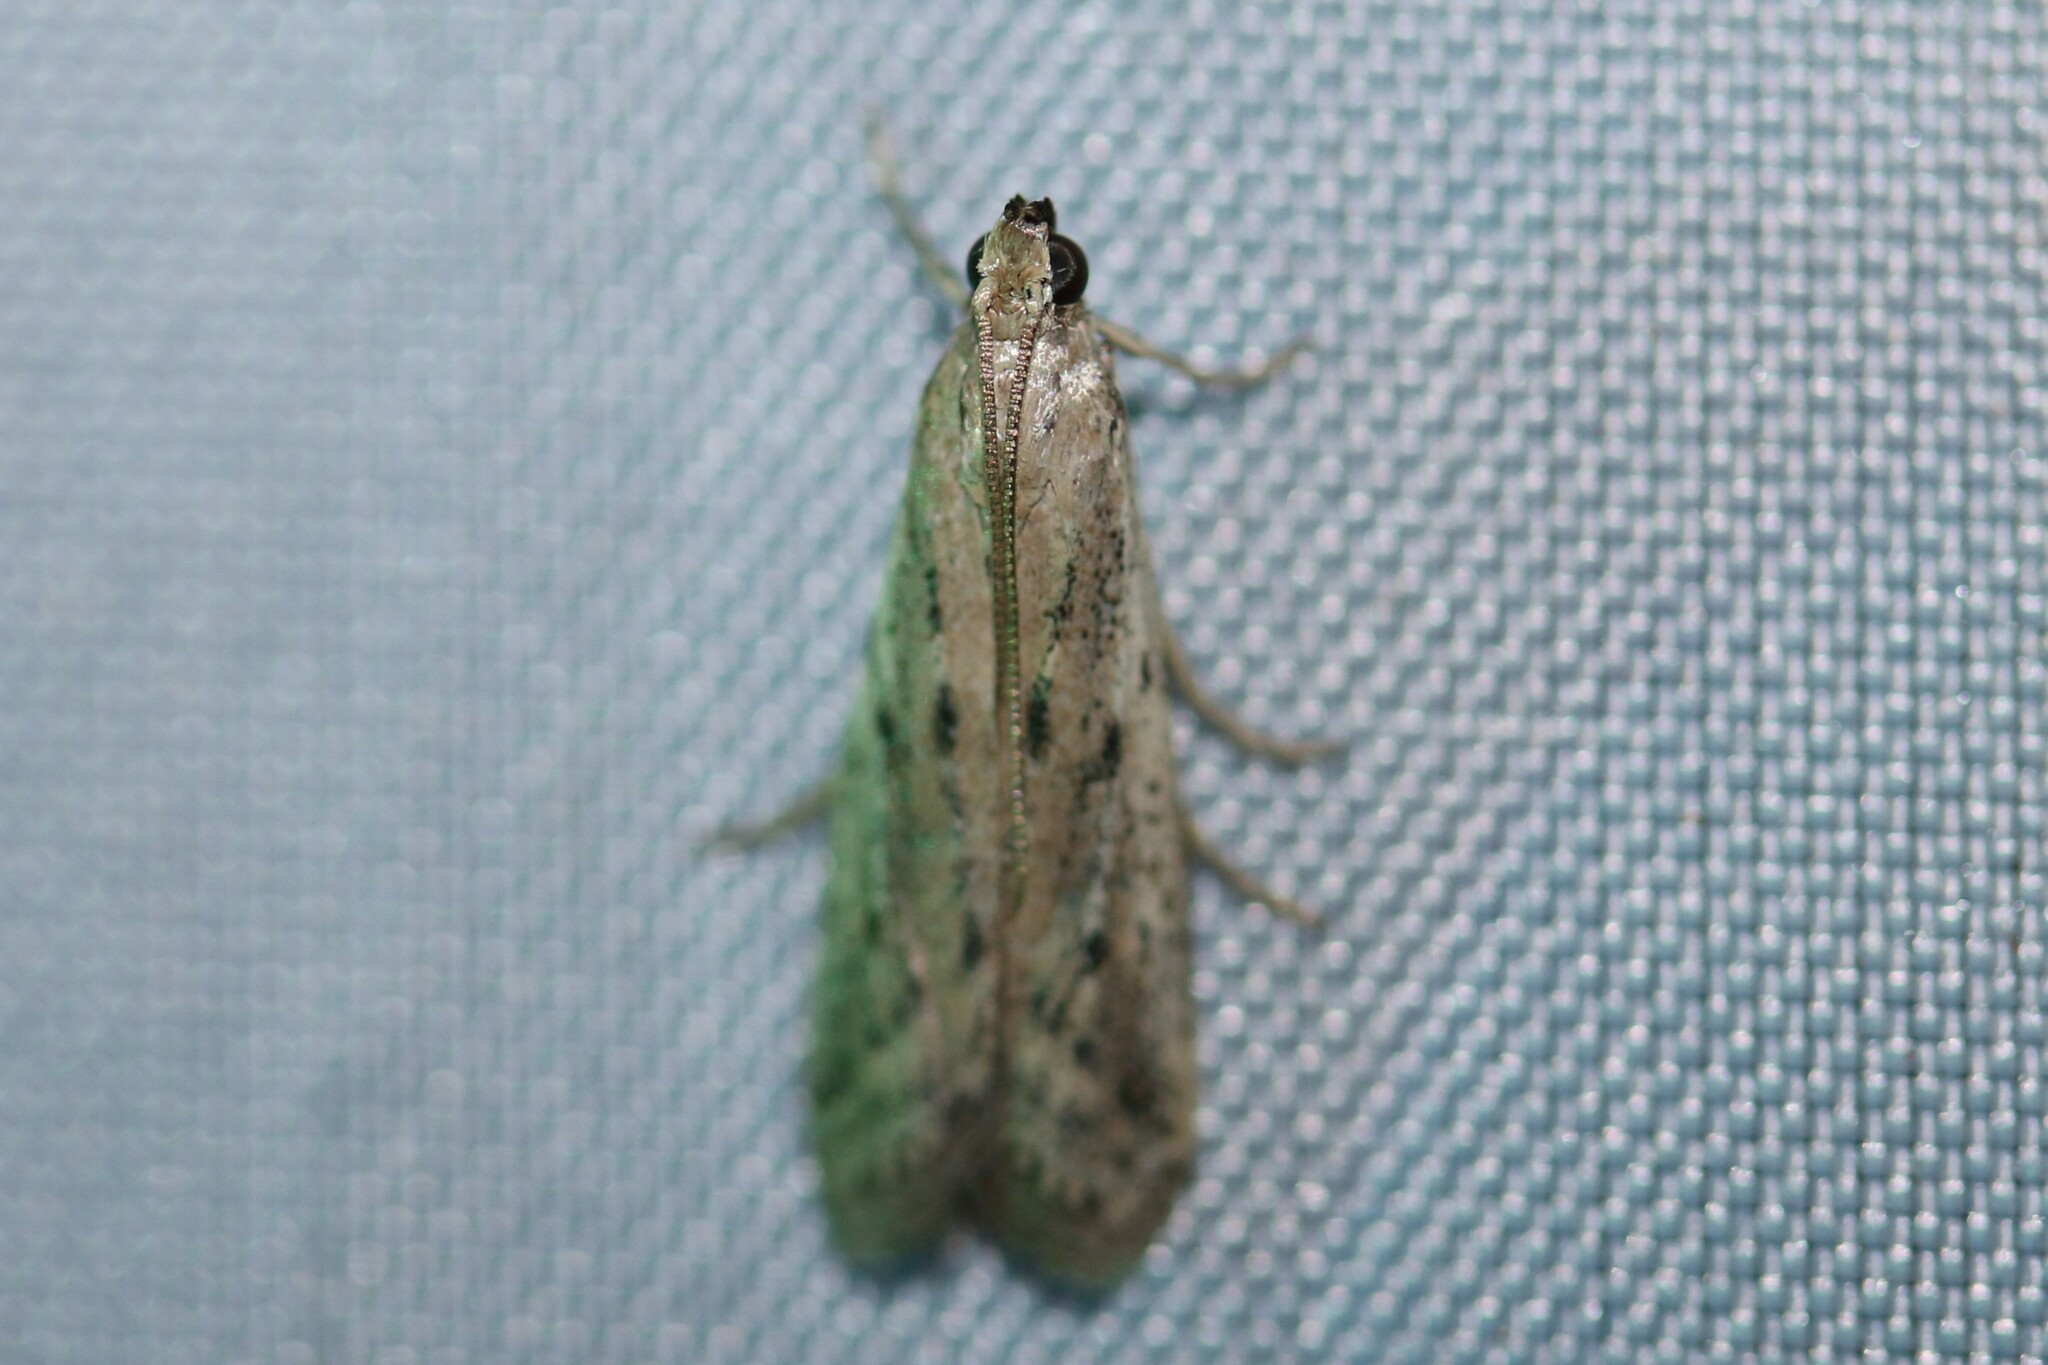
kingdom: Animalia
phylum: Arthropoda
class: Insecta
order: Lepidoptera
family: Pyralidae
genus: Phycitodes
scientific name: Phycitodes
